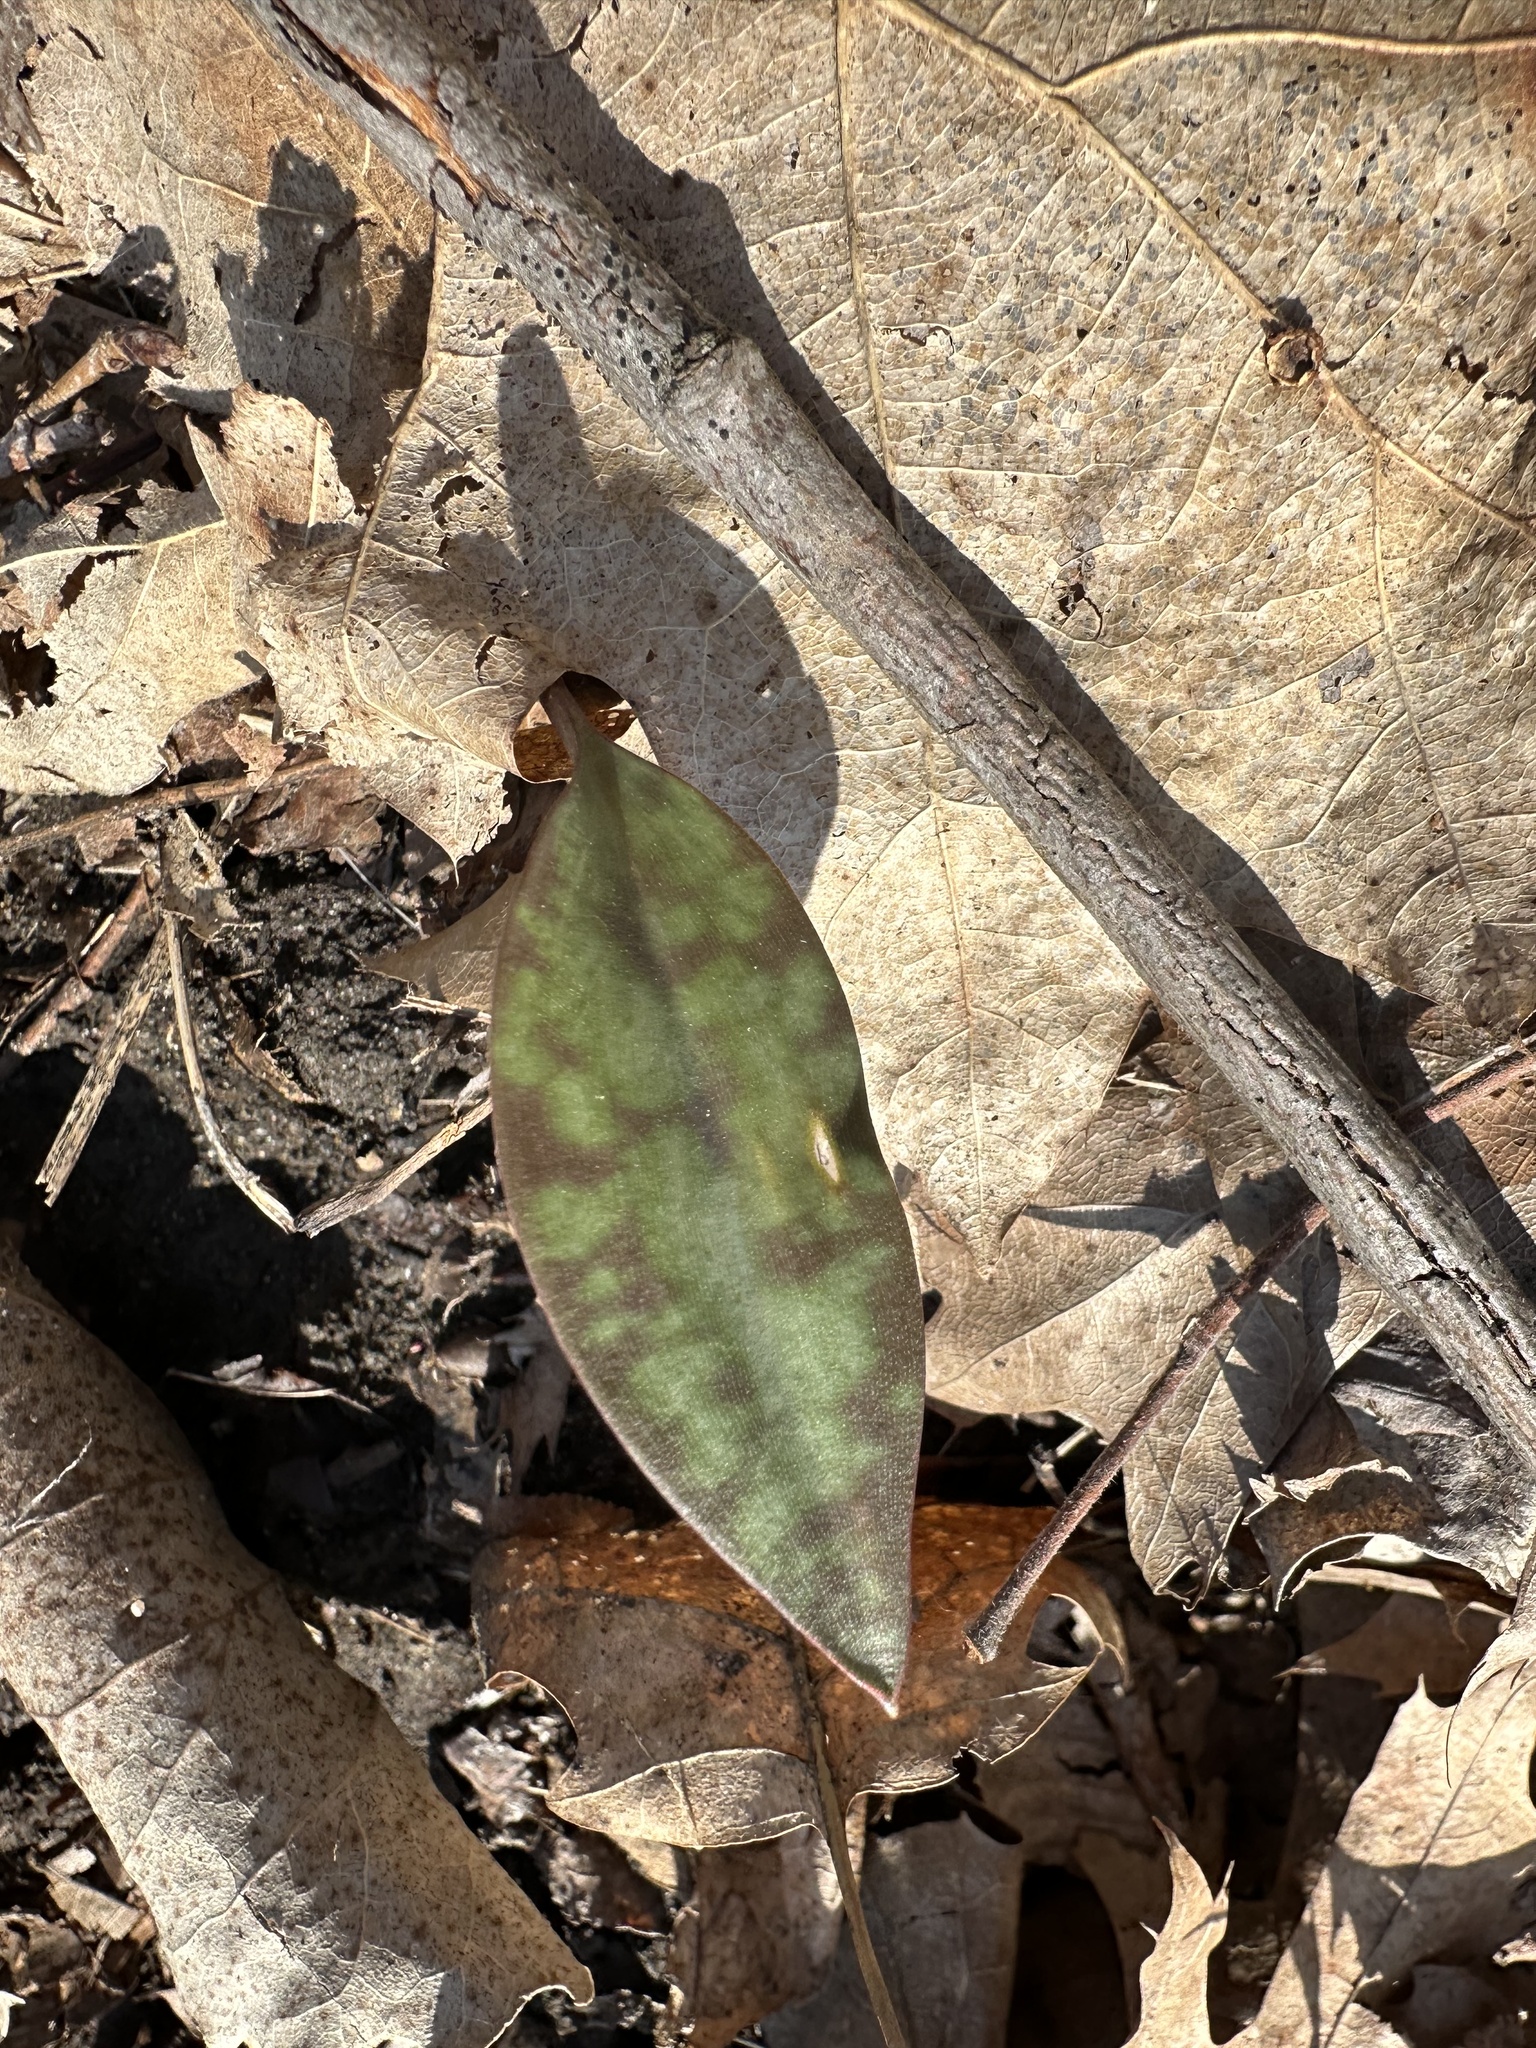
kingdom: Plantae
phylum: Tracheophyta
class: Liliopsida
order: Liliales
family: Liliaceae
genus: Erythronium
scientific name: Erythronium americanum
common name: Yellow adder's-tongue
